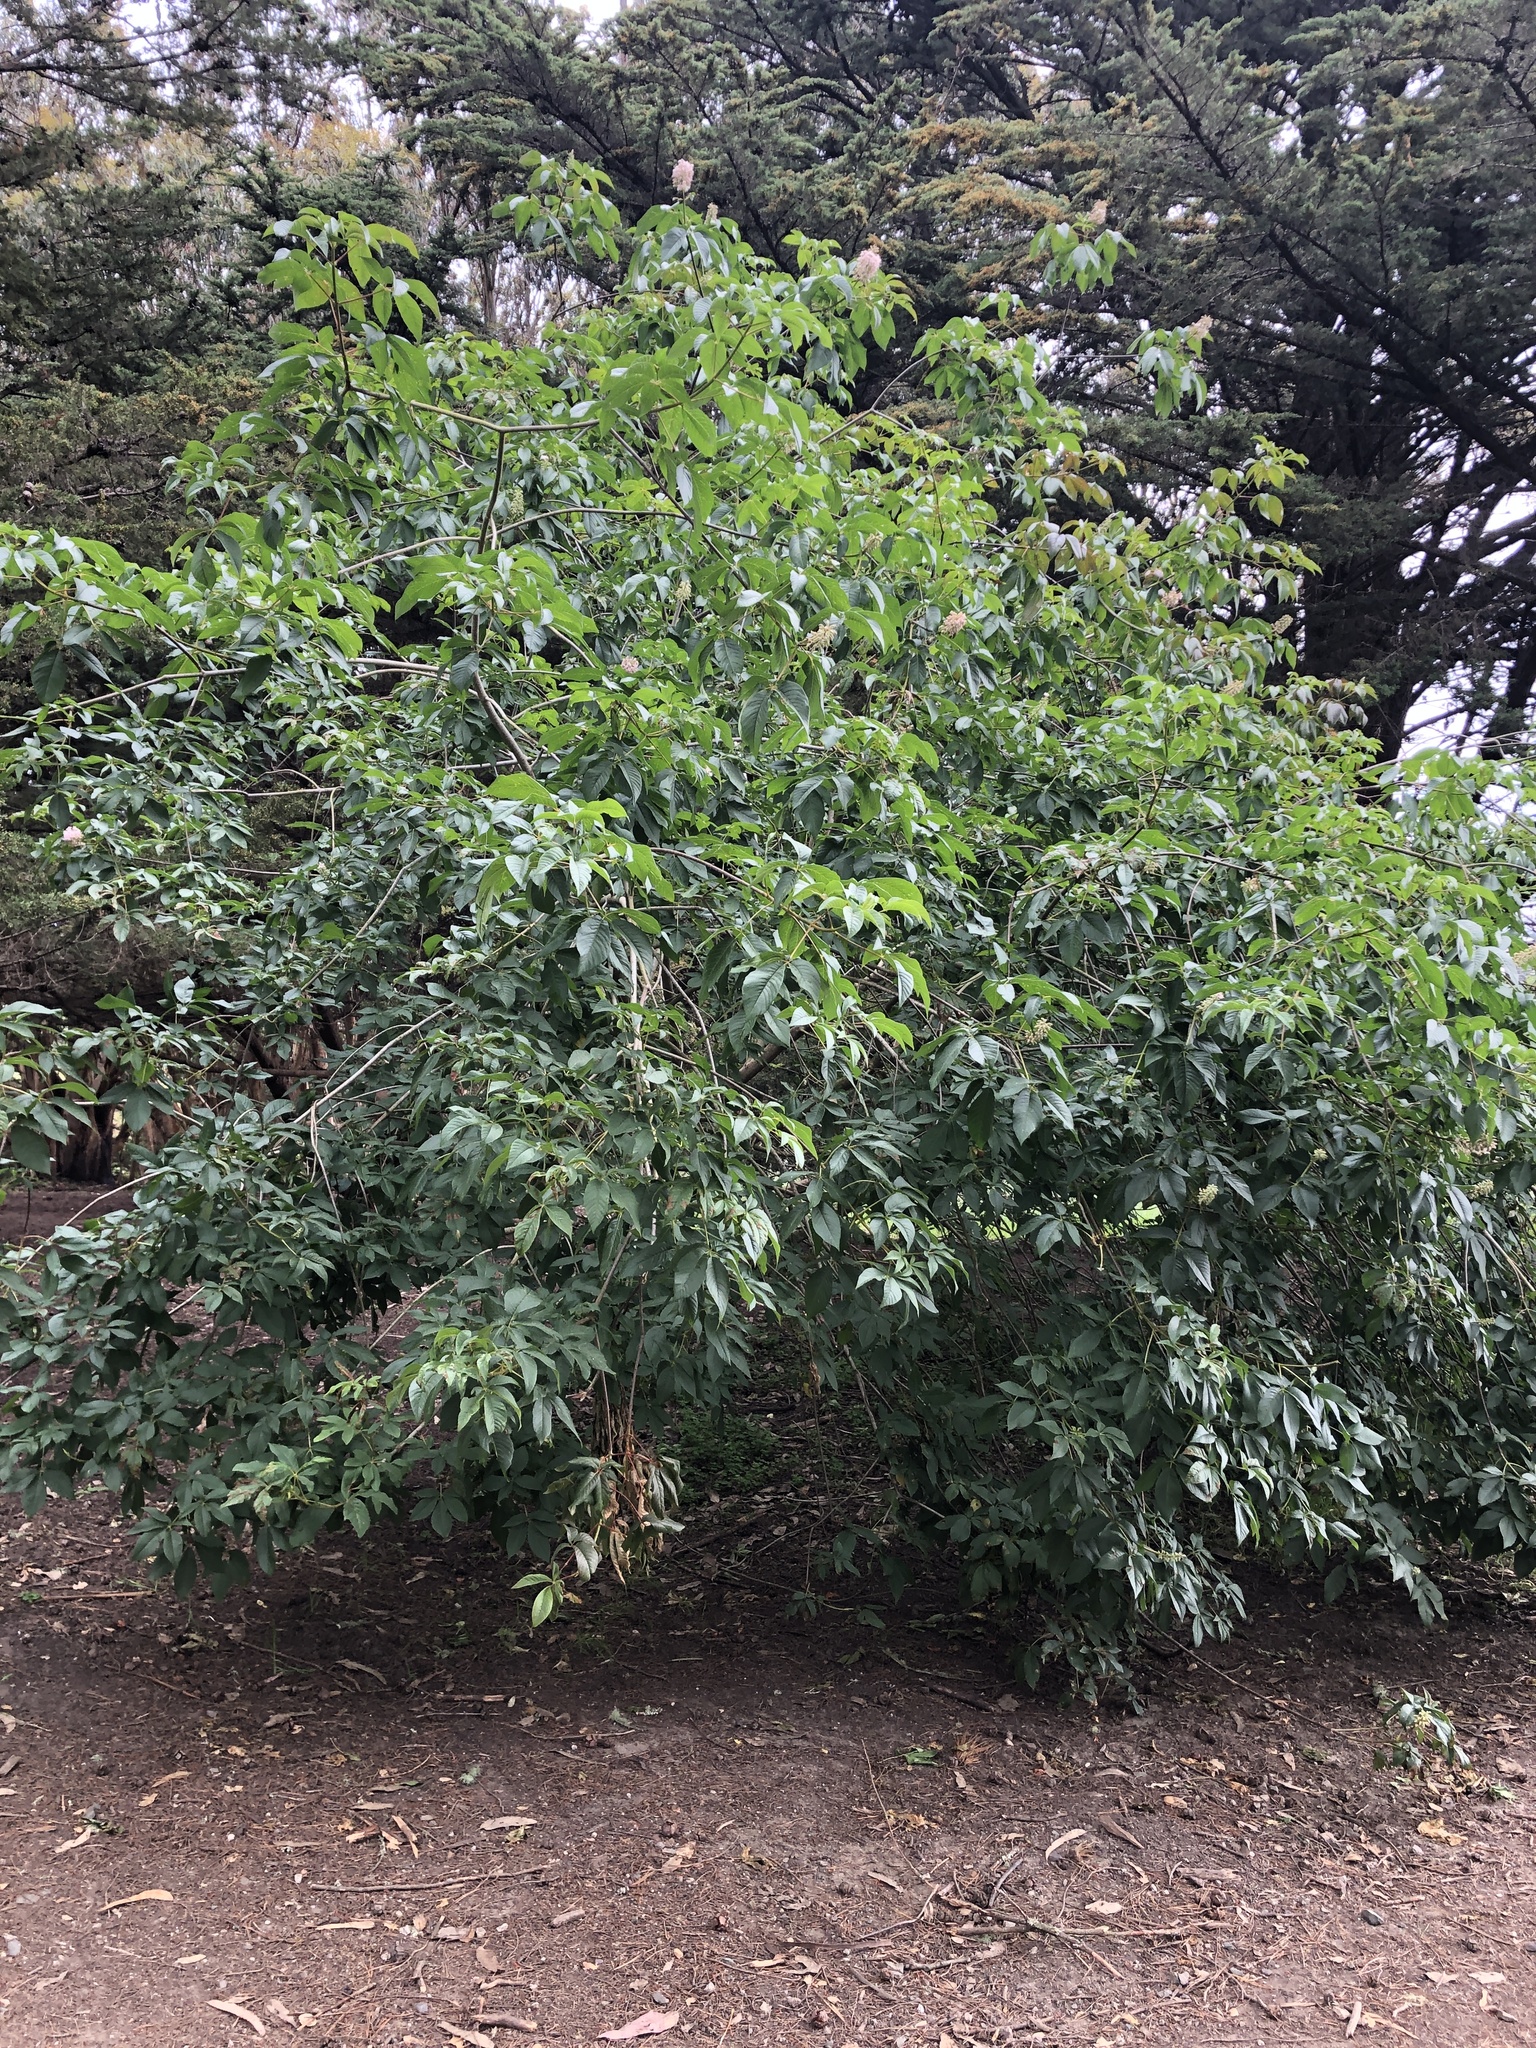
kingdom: Plantae
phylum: Tracheophyta
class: Magnoliopsida
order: Sapindales
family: Sapindaceae
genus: Aesculus
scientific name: Aesculus californica
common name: California buckeye
